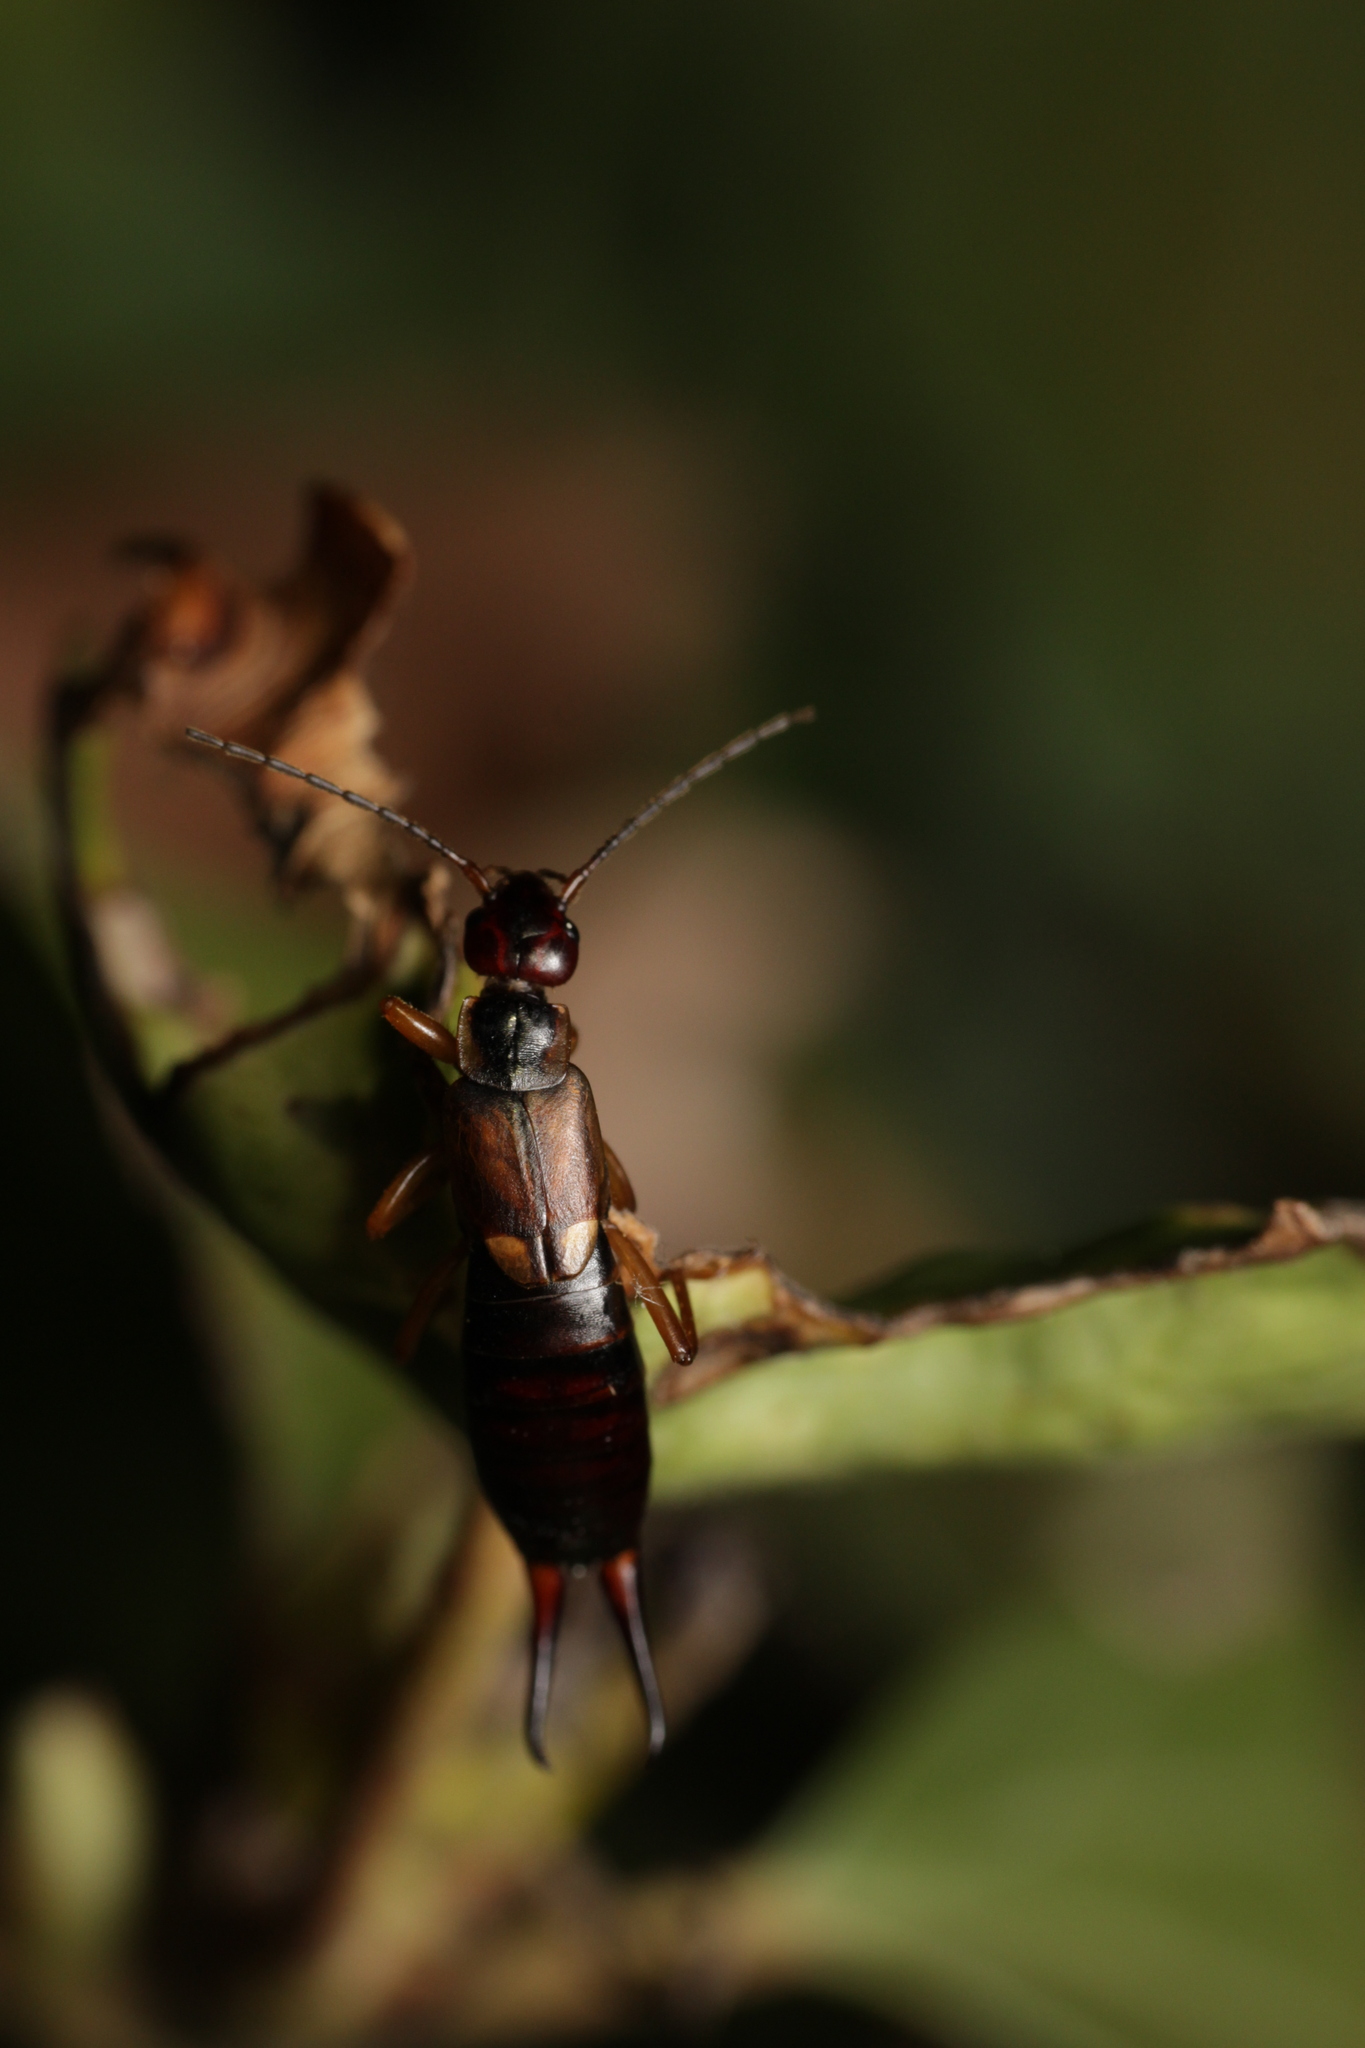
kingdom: Animalia
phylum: Arthropoda
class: Insecta
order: Dermaptera
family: Forficulidae
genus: Forficula
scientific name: Forficula
